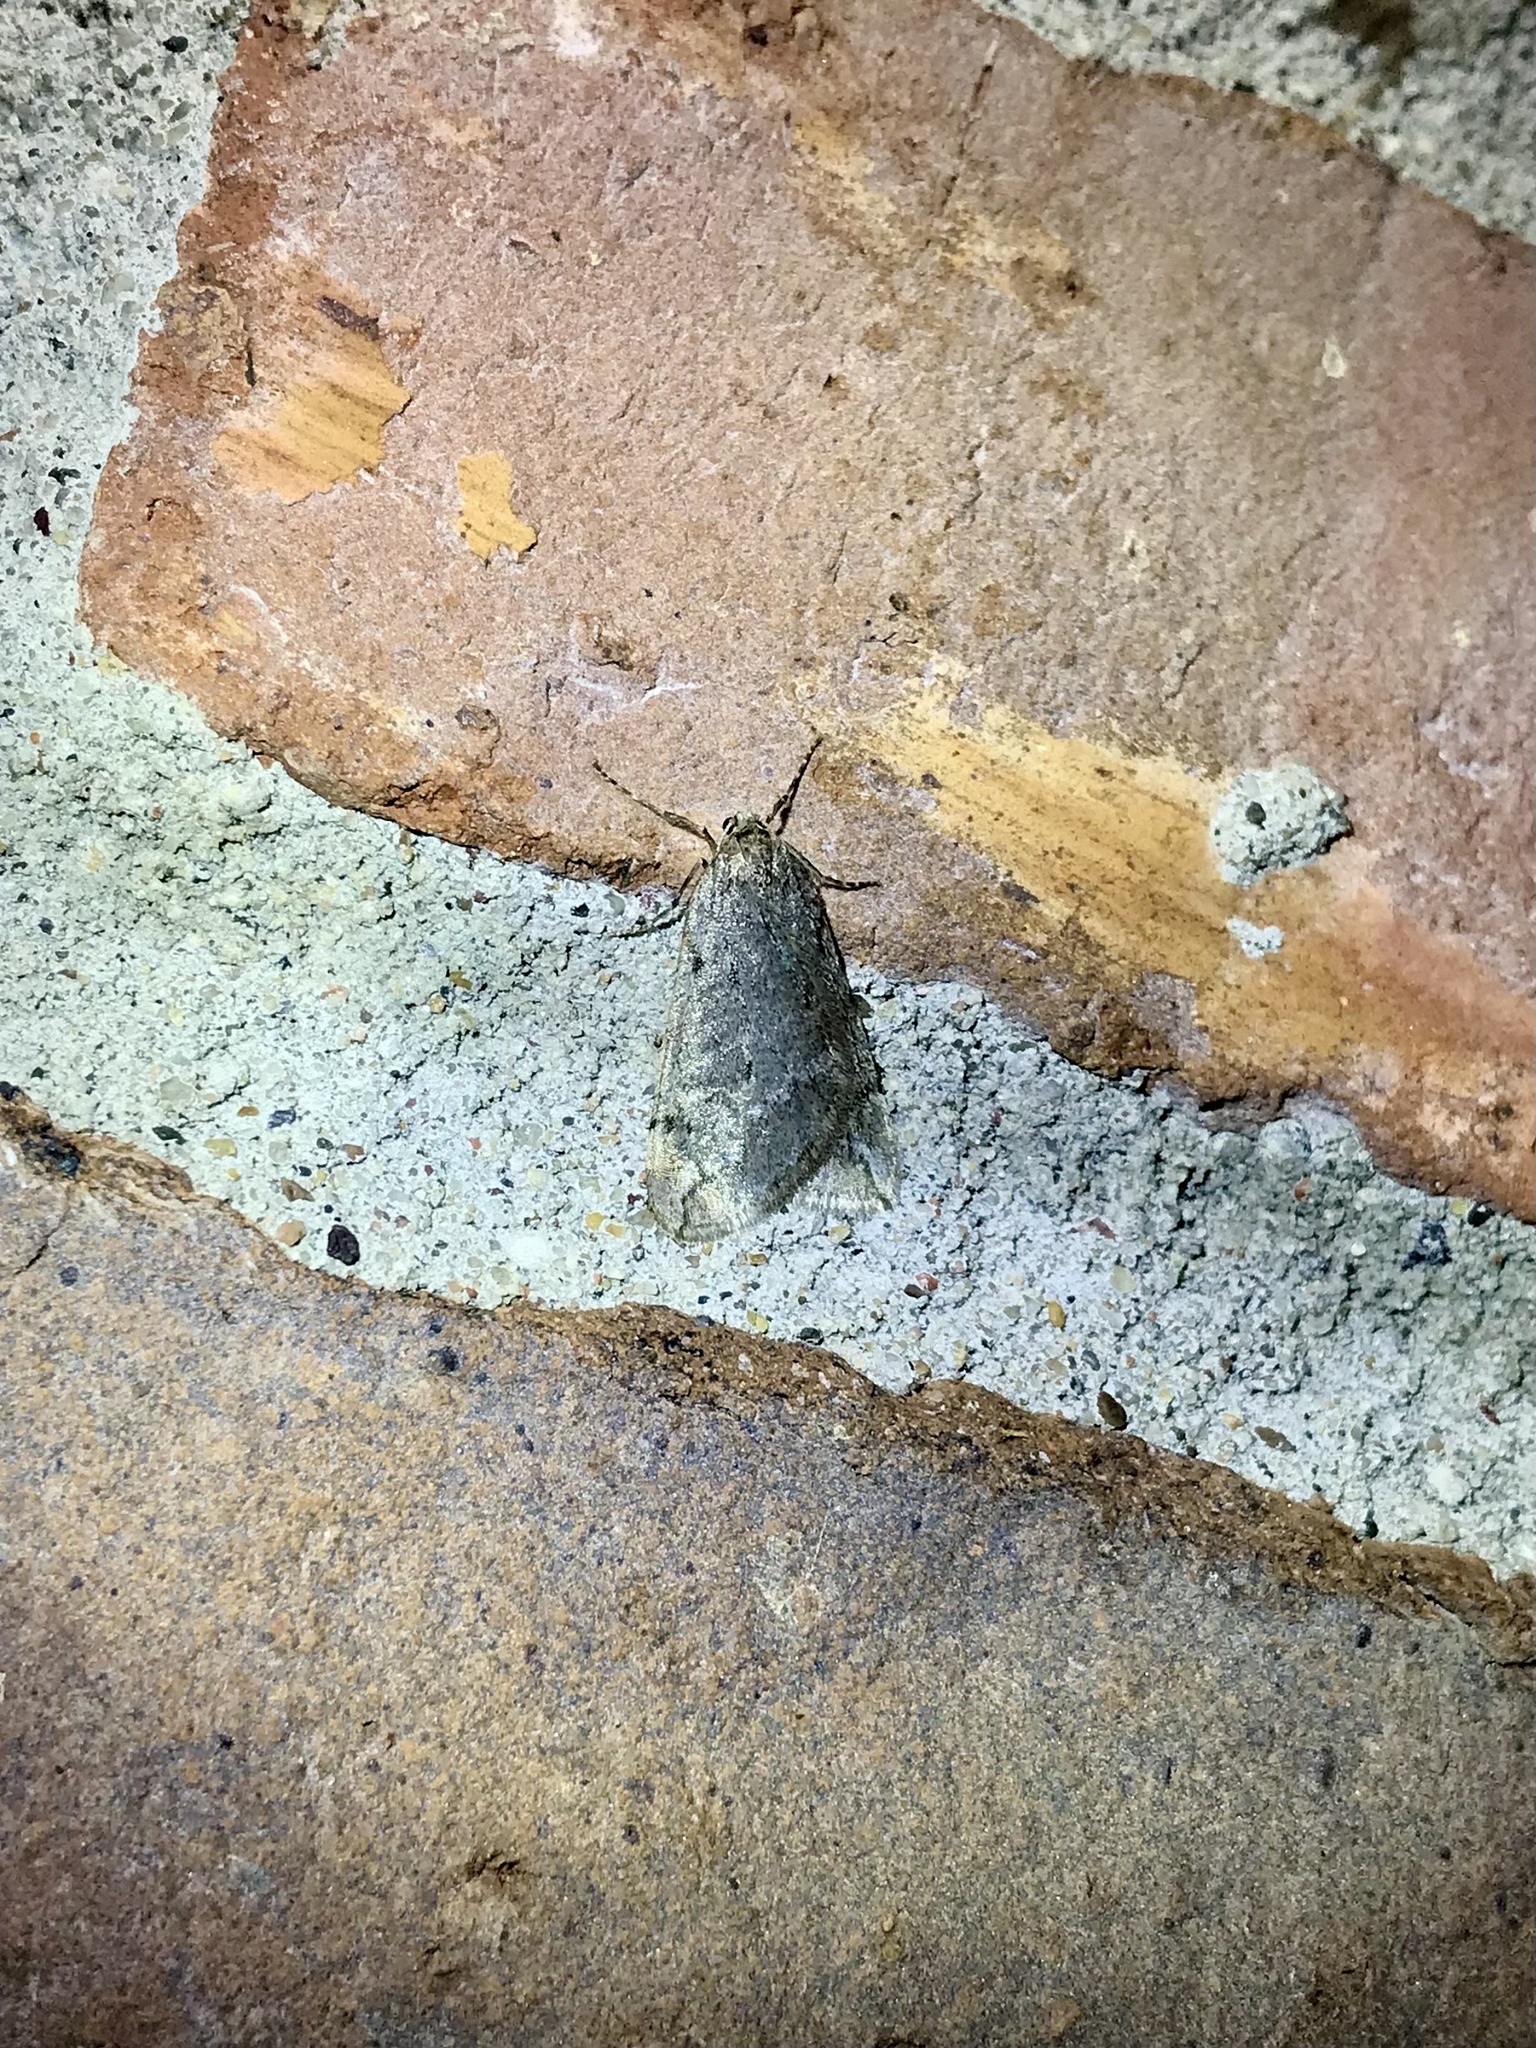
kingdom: Animalia
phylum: Arthropoda
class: Insecta
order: Lepidoptera
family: Geometridae
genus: Paleacrita
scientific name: Paleacrita vernata
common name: Spring cankerworm
